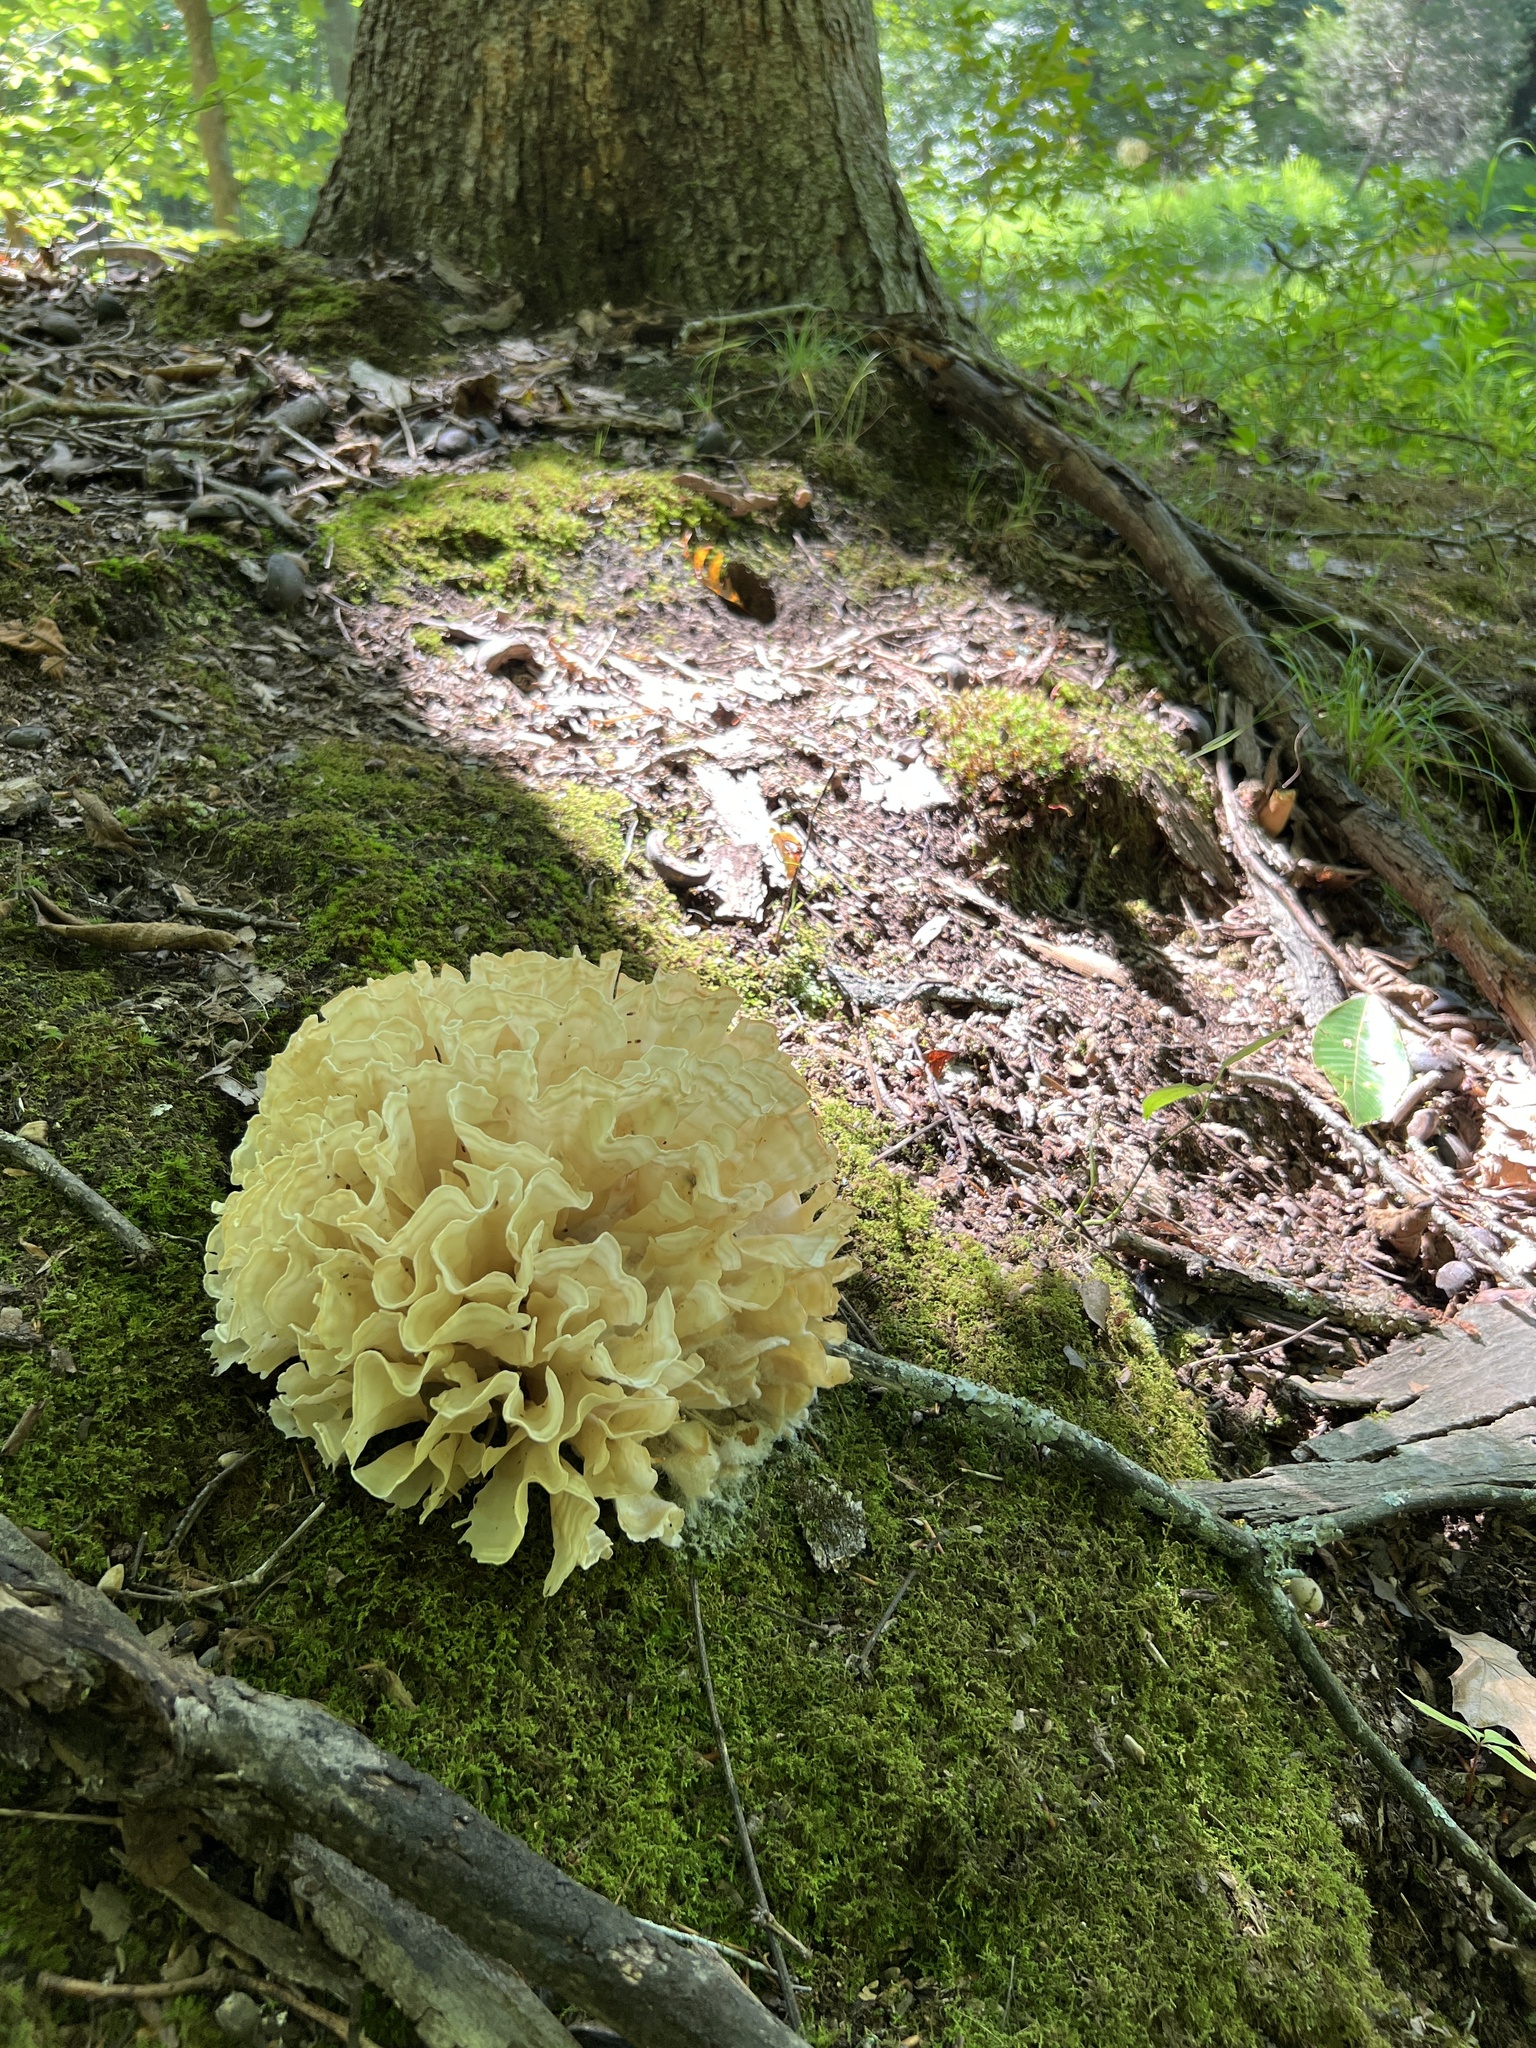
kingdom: Fungi
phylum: Basidiomycota
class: Agaricomycetes
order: Polyporales
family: Sparassidaceae
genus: Sparassis
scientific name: Sparassis spathulata
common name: Eastern cauliflower mushroom
